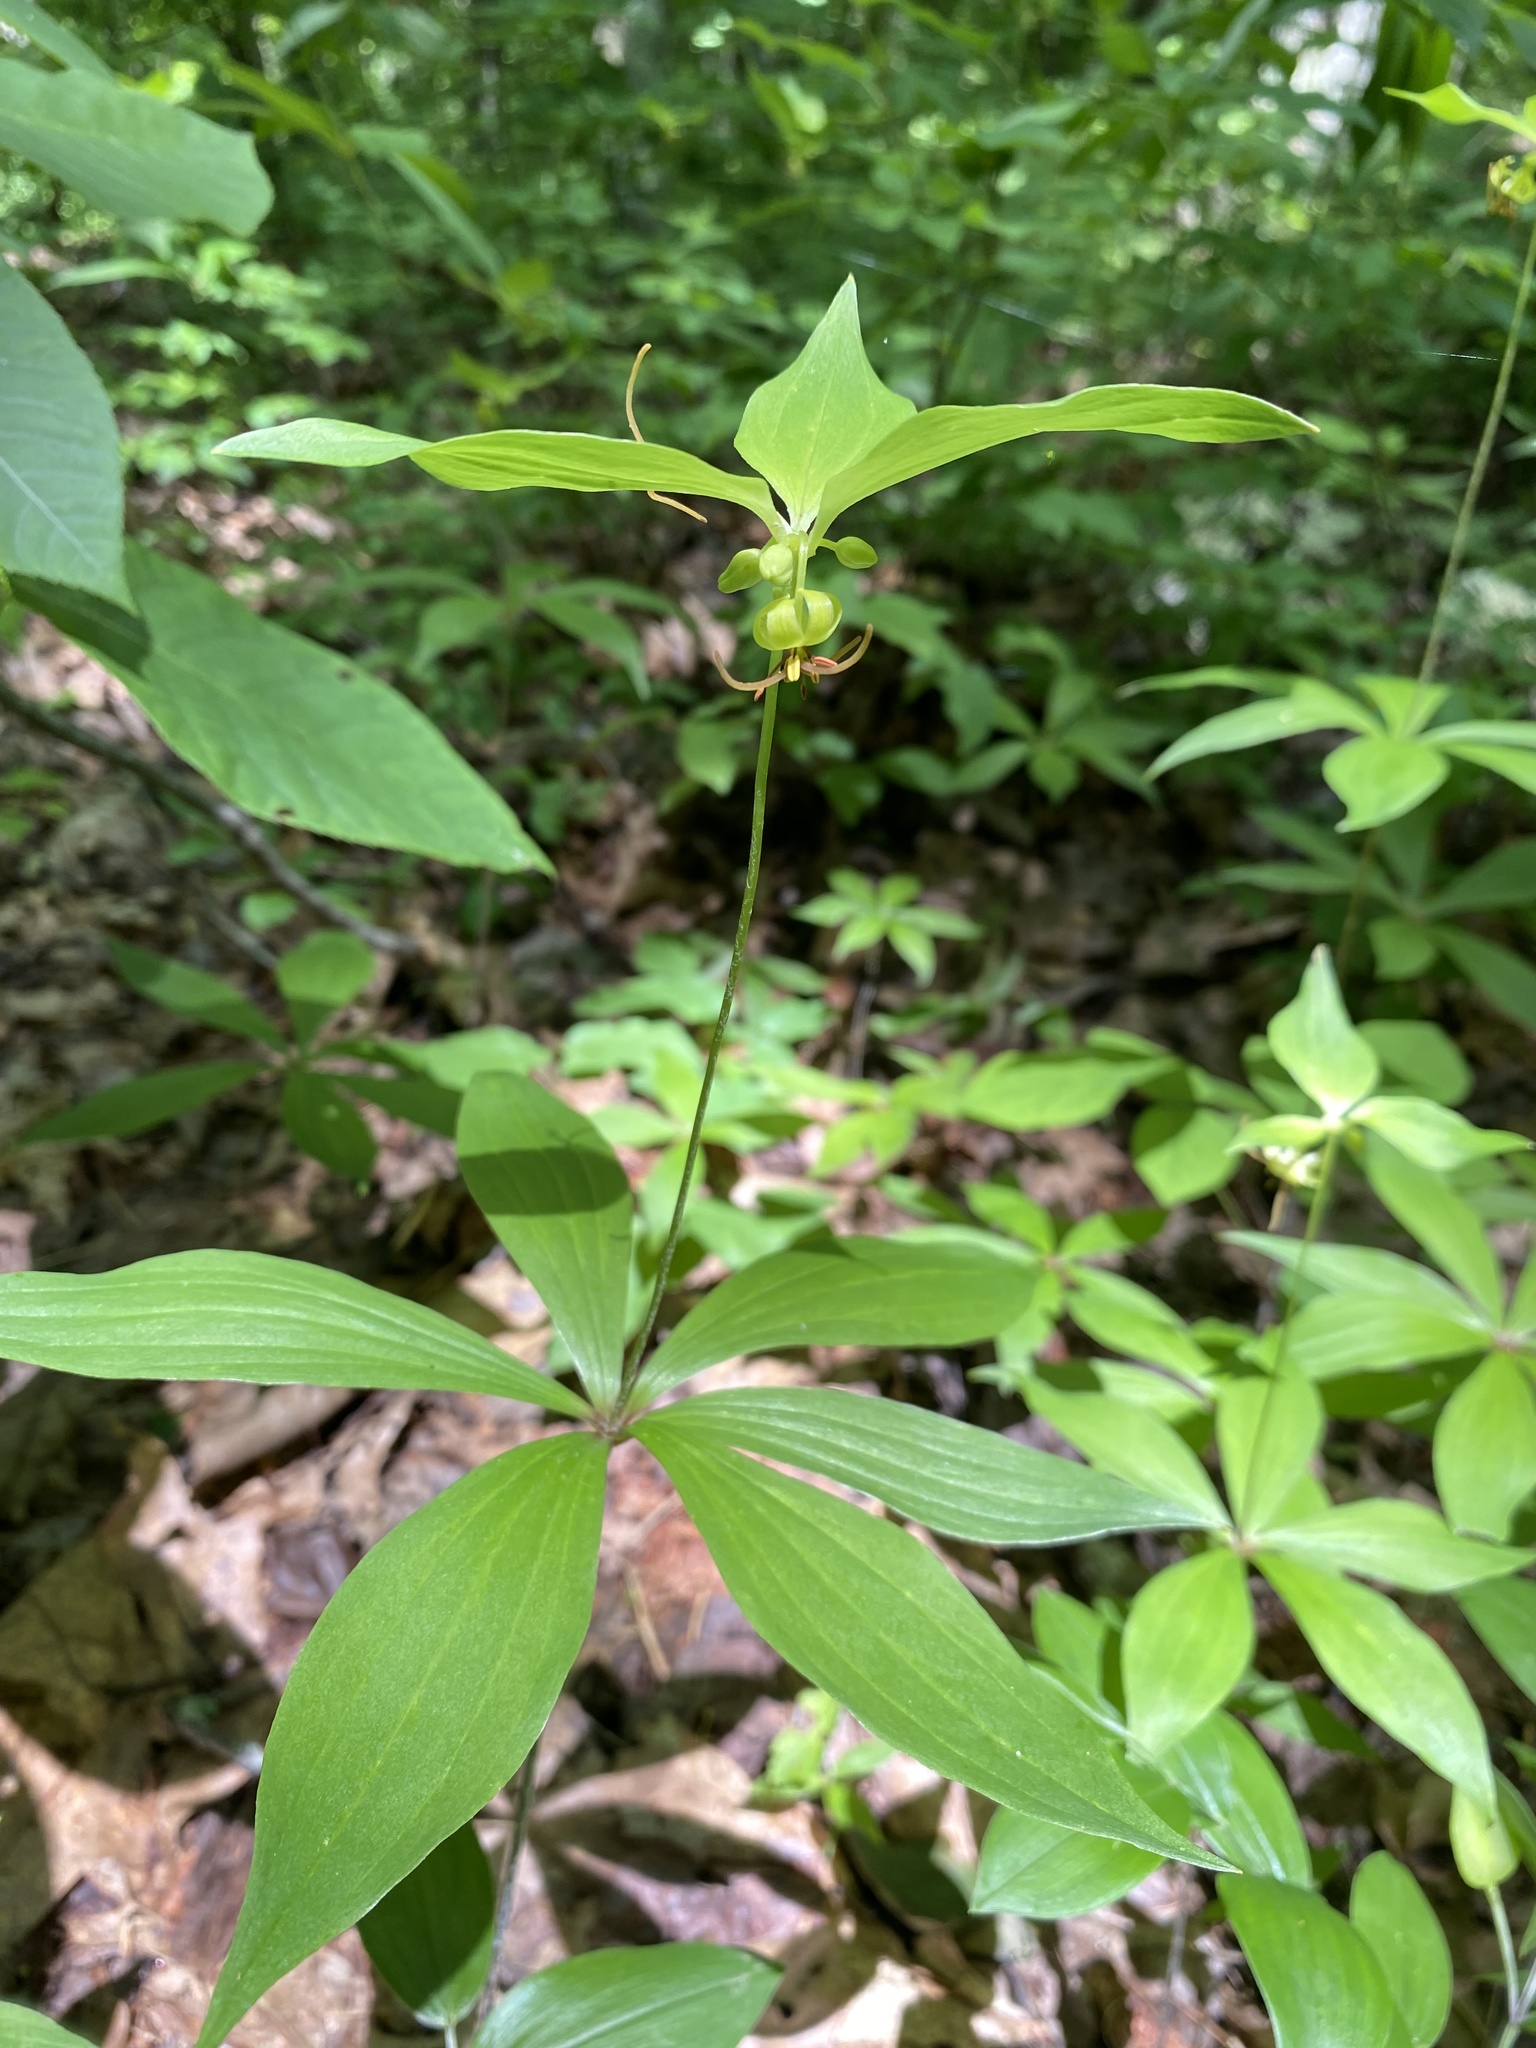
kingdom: Plantae
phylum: Tracheophyta
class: Liliopsida
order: Liliales
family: Liliaceae
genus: Medeola
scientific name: Medeola virginiana
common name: Indian cucumber-root
